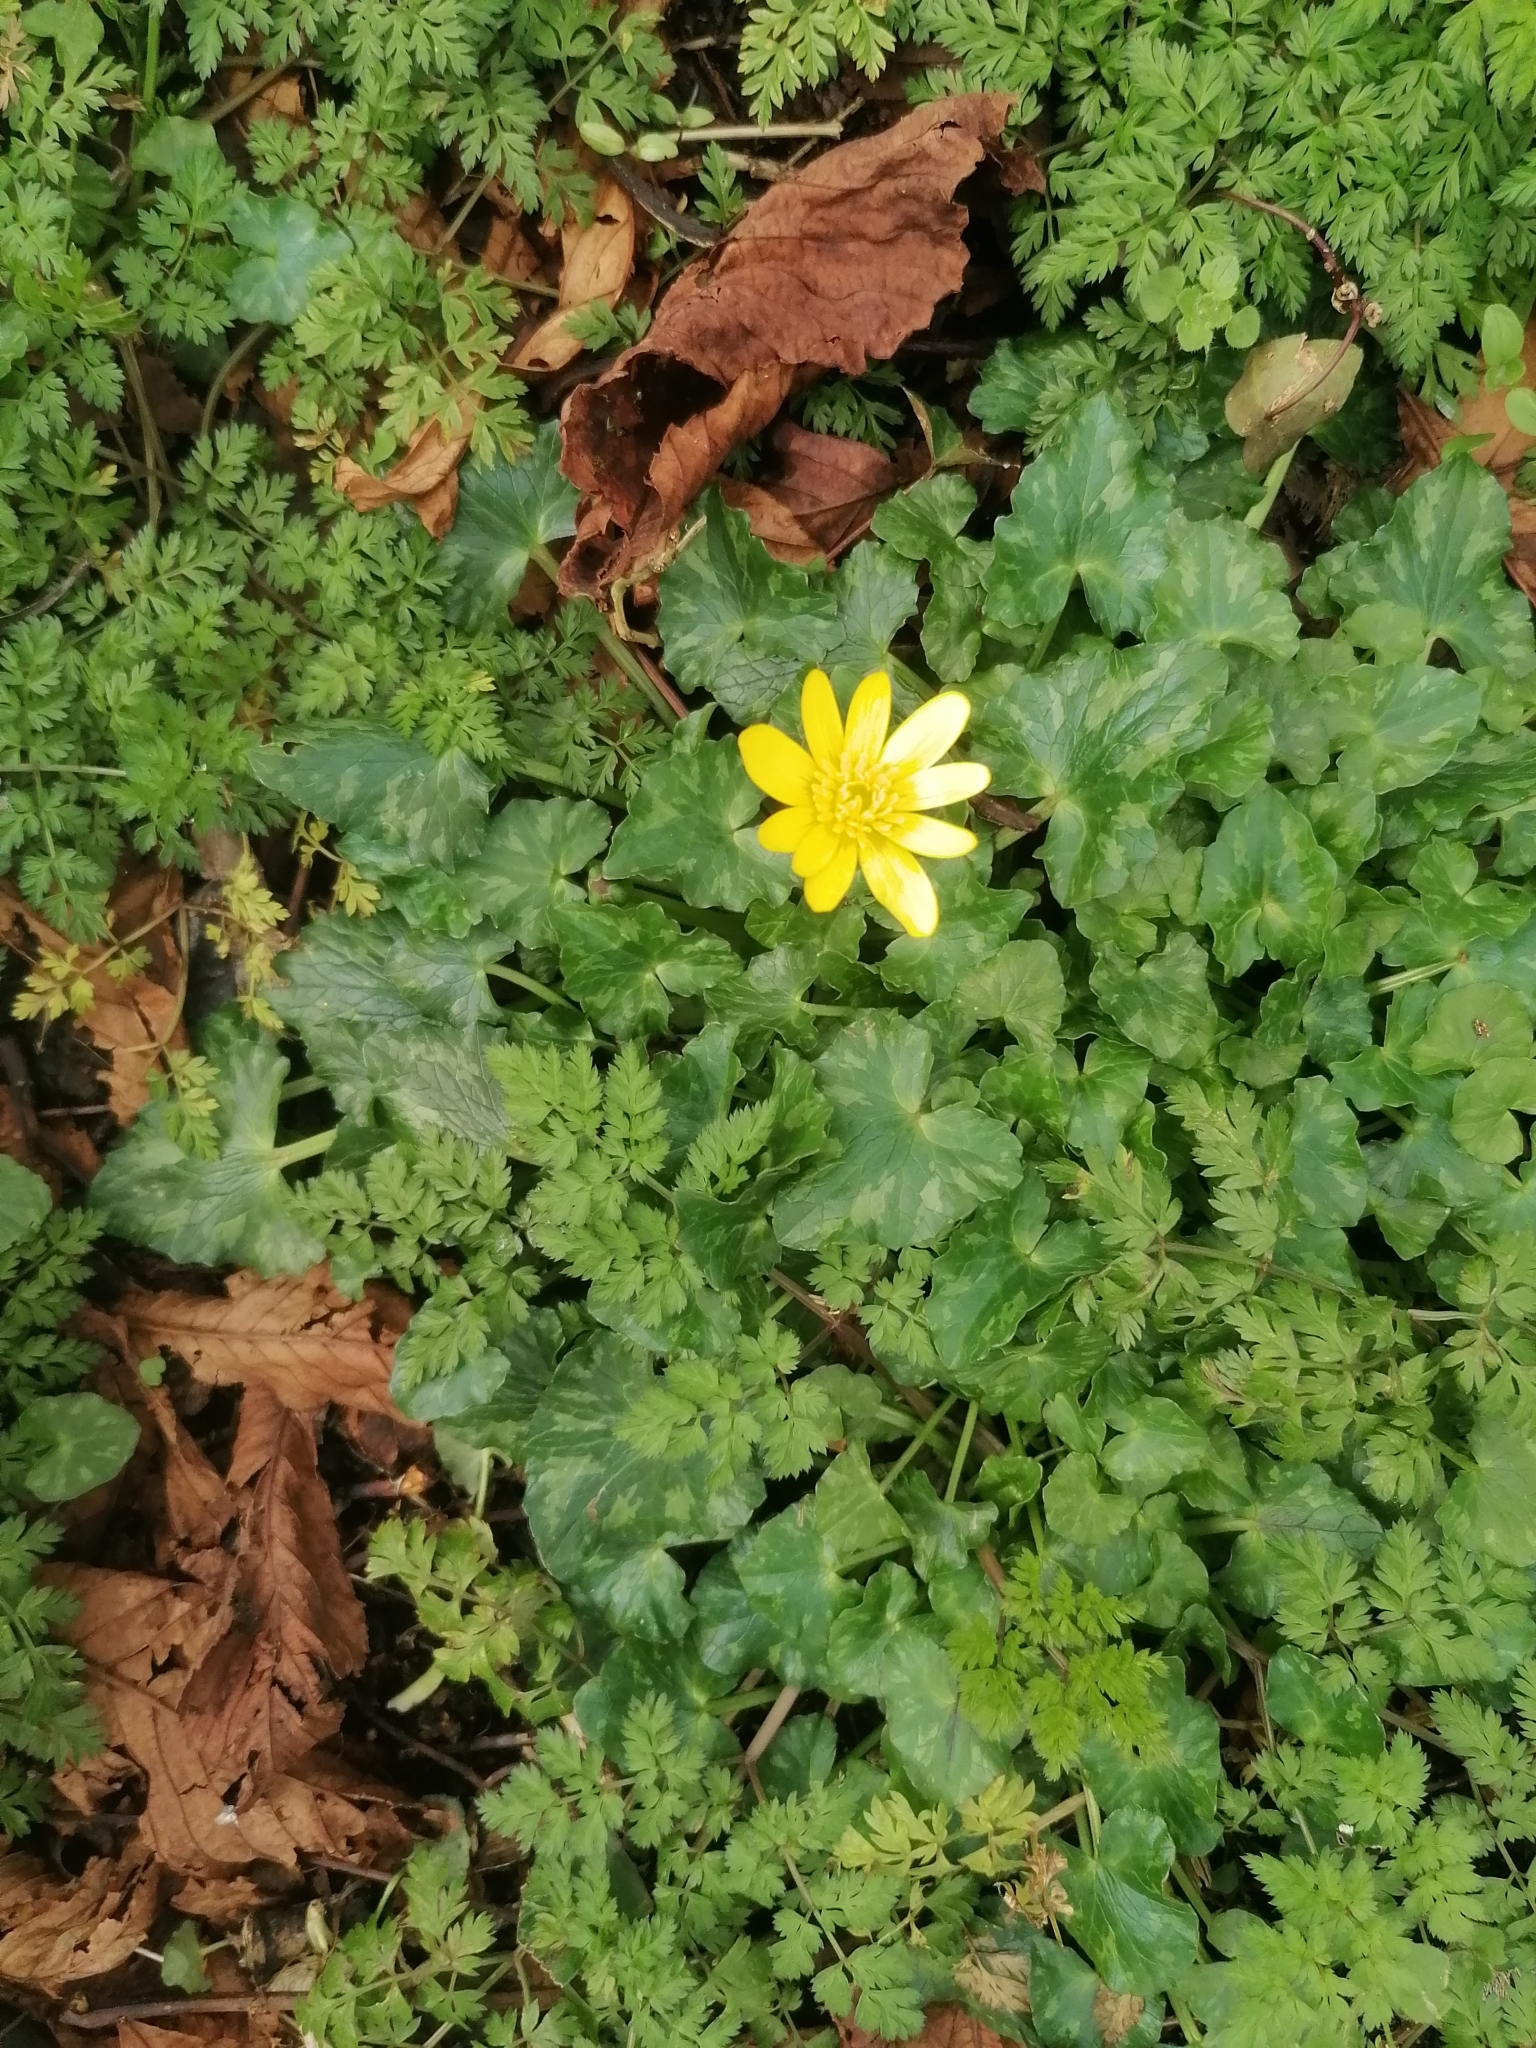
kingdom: Plantae
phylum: Tracheophyta
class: Magnoliopsida
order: Ranunculales
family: Ranunculaceae
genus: Ficaria
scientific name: Ficaria verna
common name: Lesser celandine
